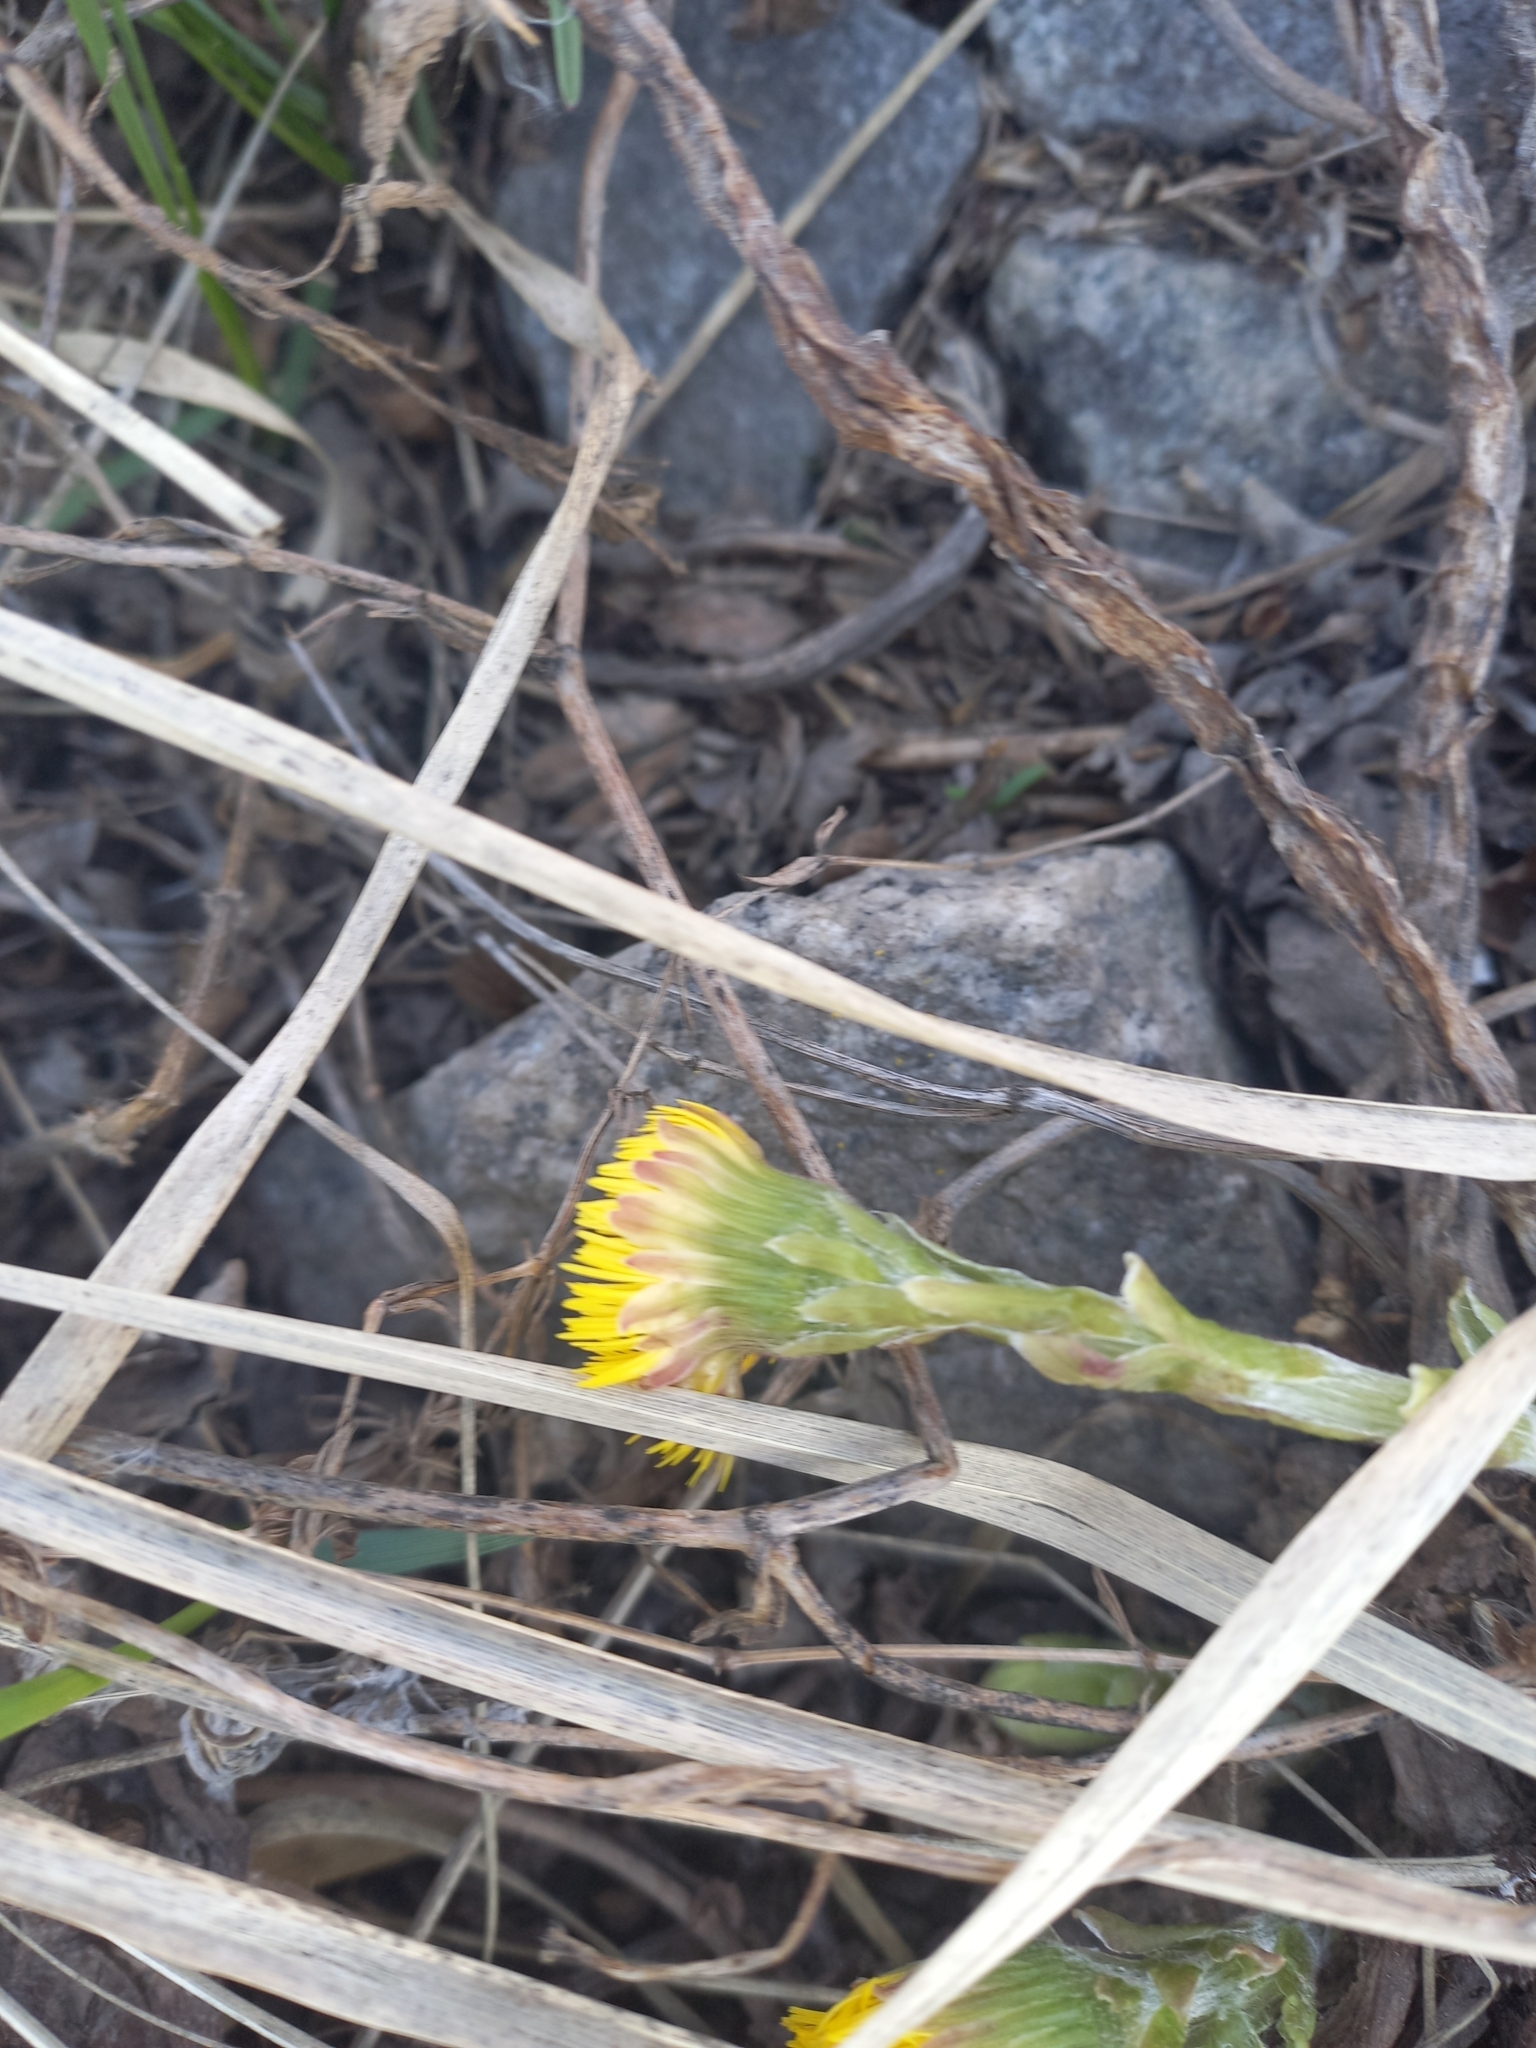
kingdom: Plantae
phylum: Tracheophyta
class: Magnoliopsida
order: Asterales
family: Asteraceae
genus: Tussilago
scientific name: Tussilago farfara
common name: Coltsfoot
